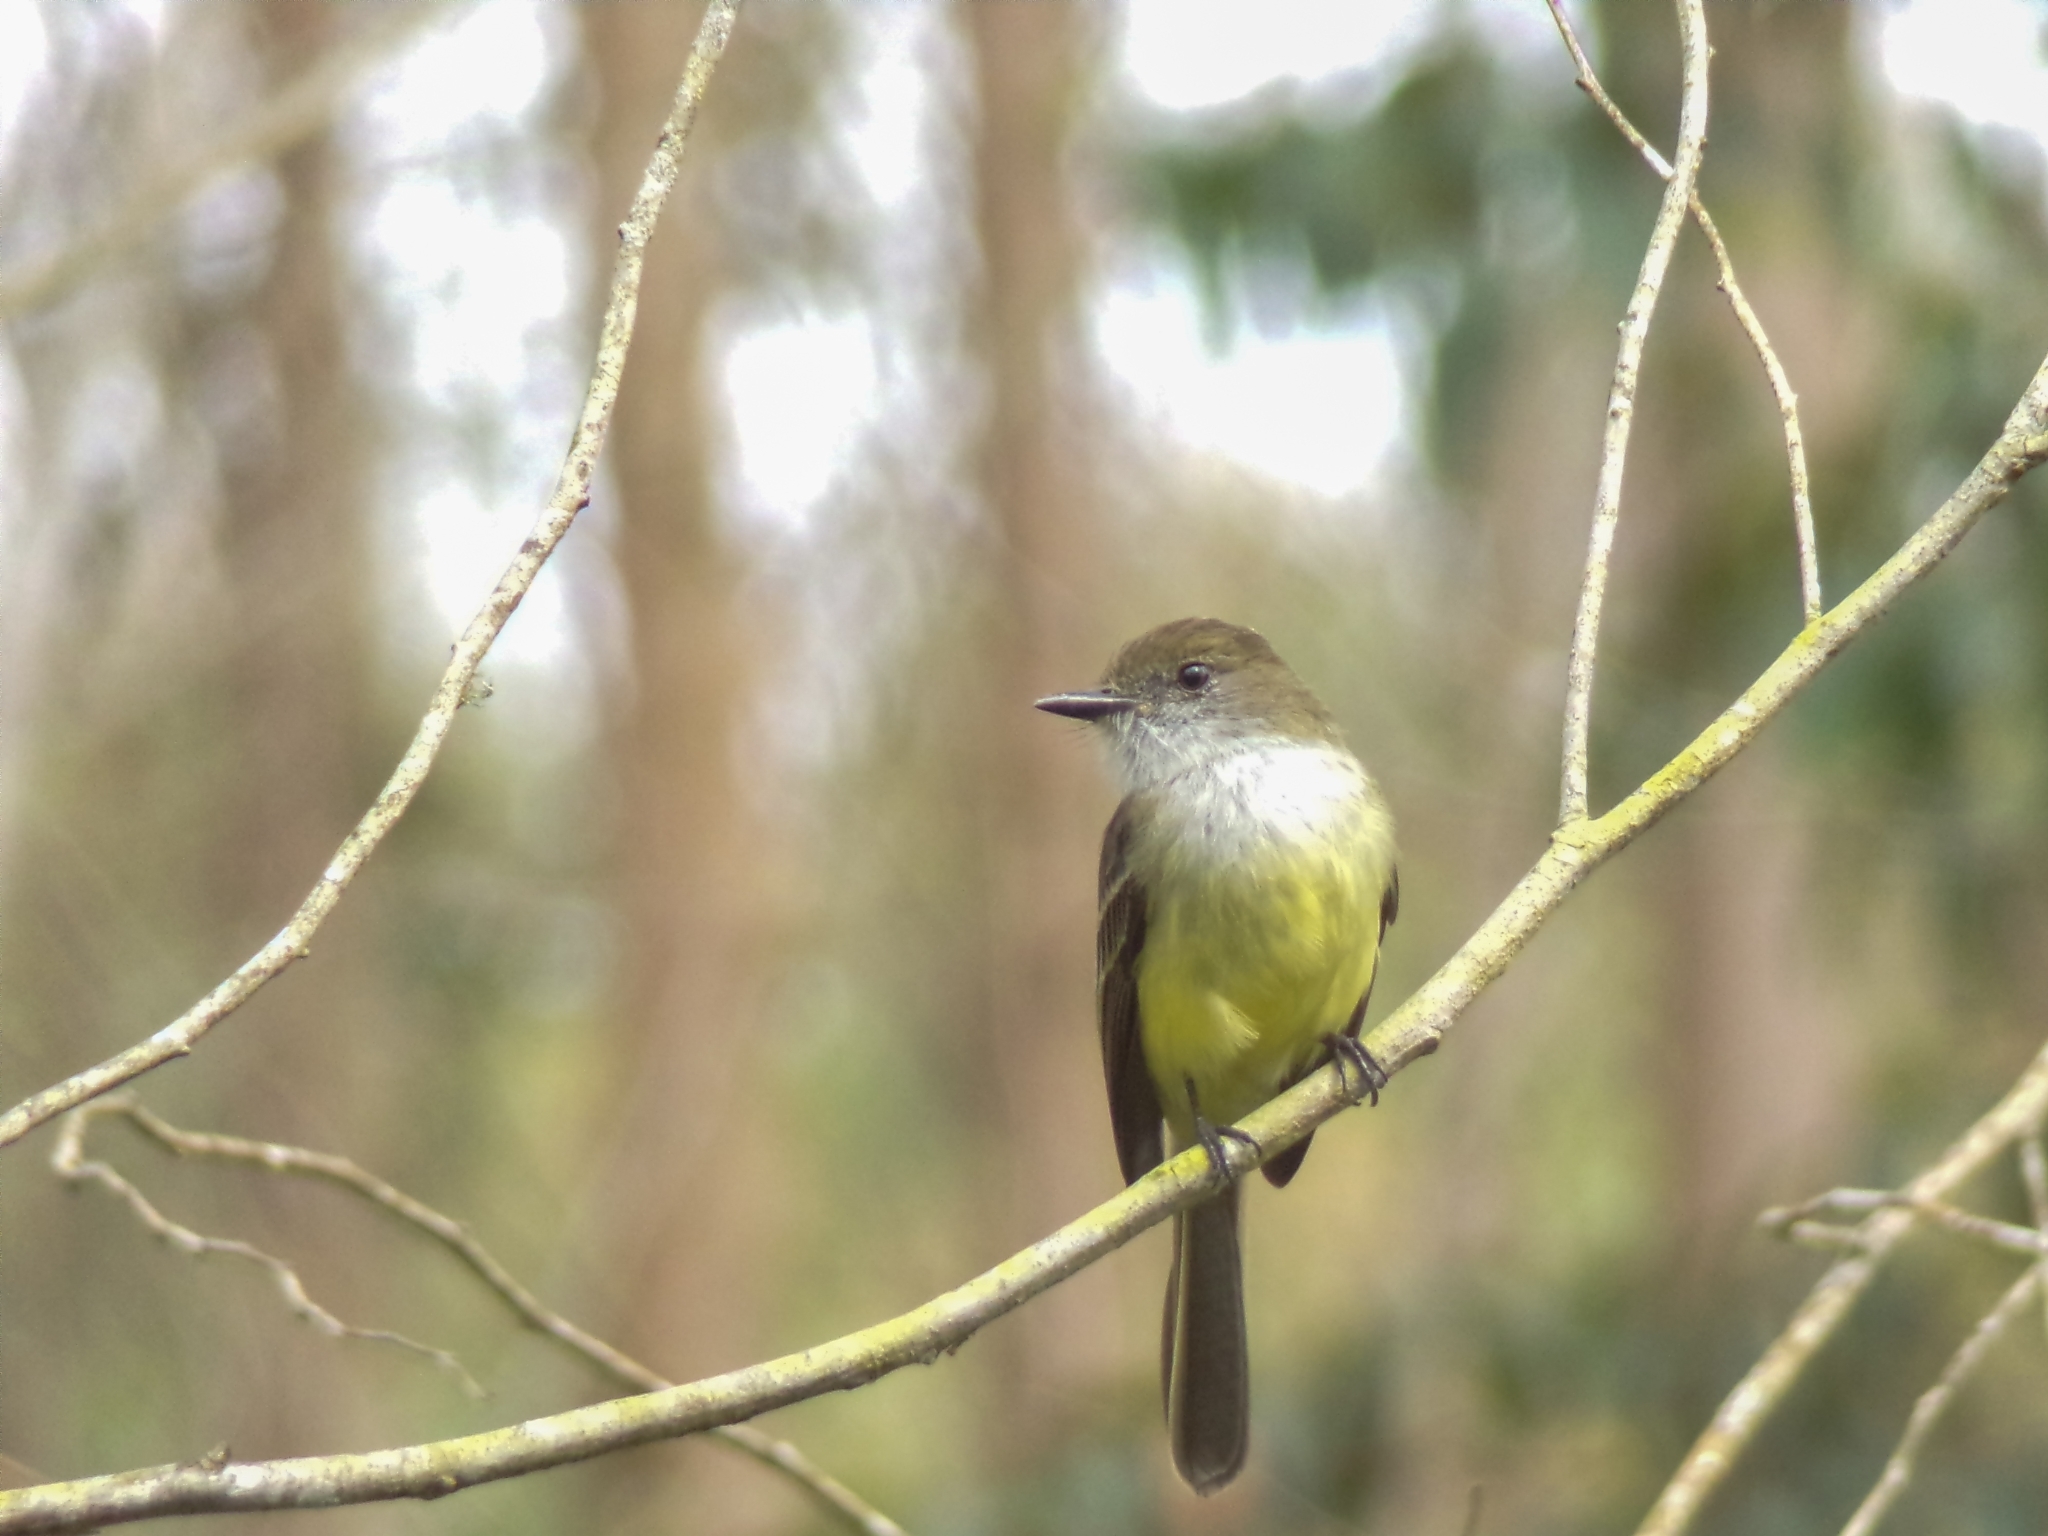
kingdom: Animalia
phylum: Chordata
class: Aves
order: Passeriformes
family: Tyrannidae
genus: Myiarchus
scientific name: Myiarchus cephalotes
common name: Pale-edged flycatcher
